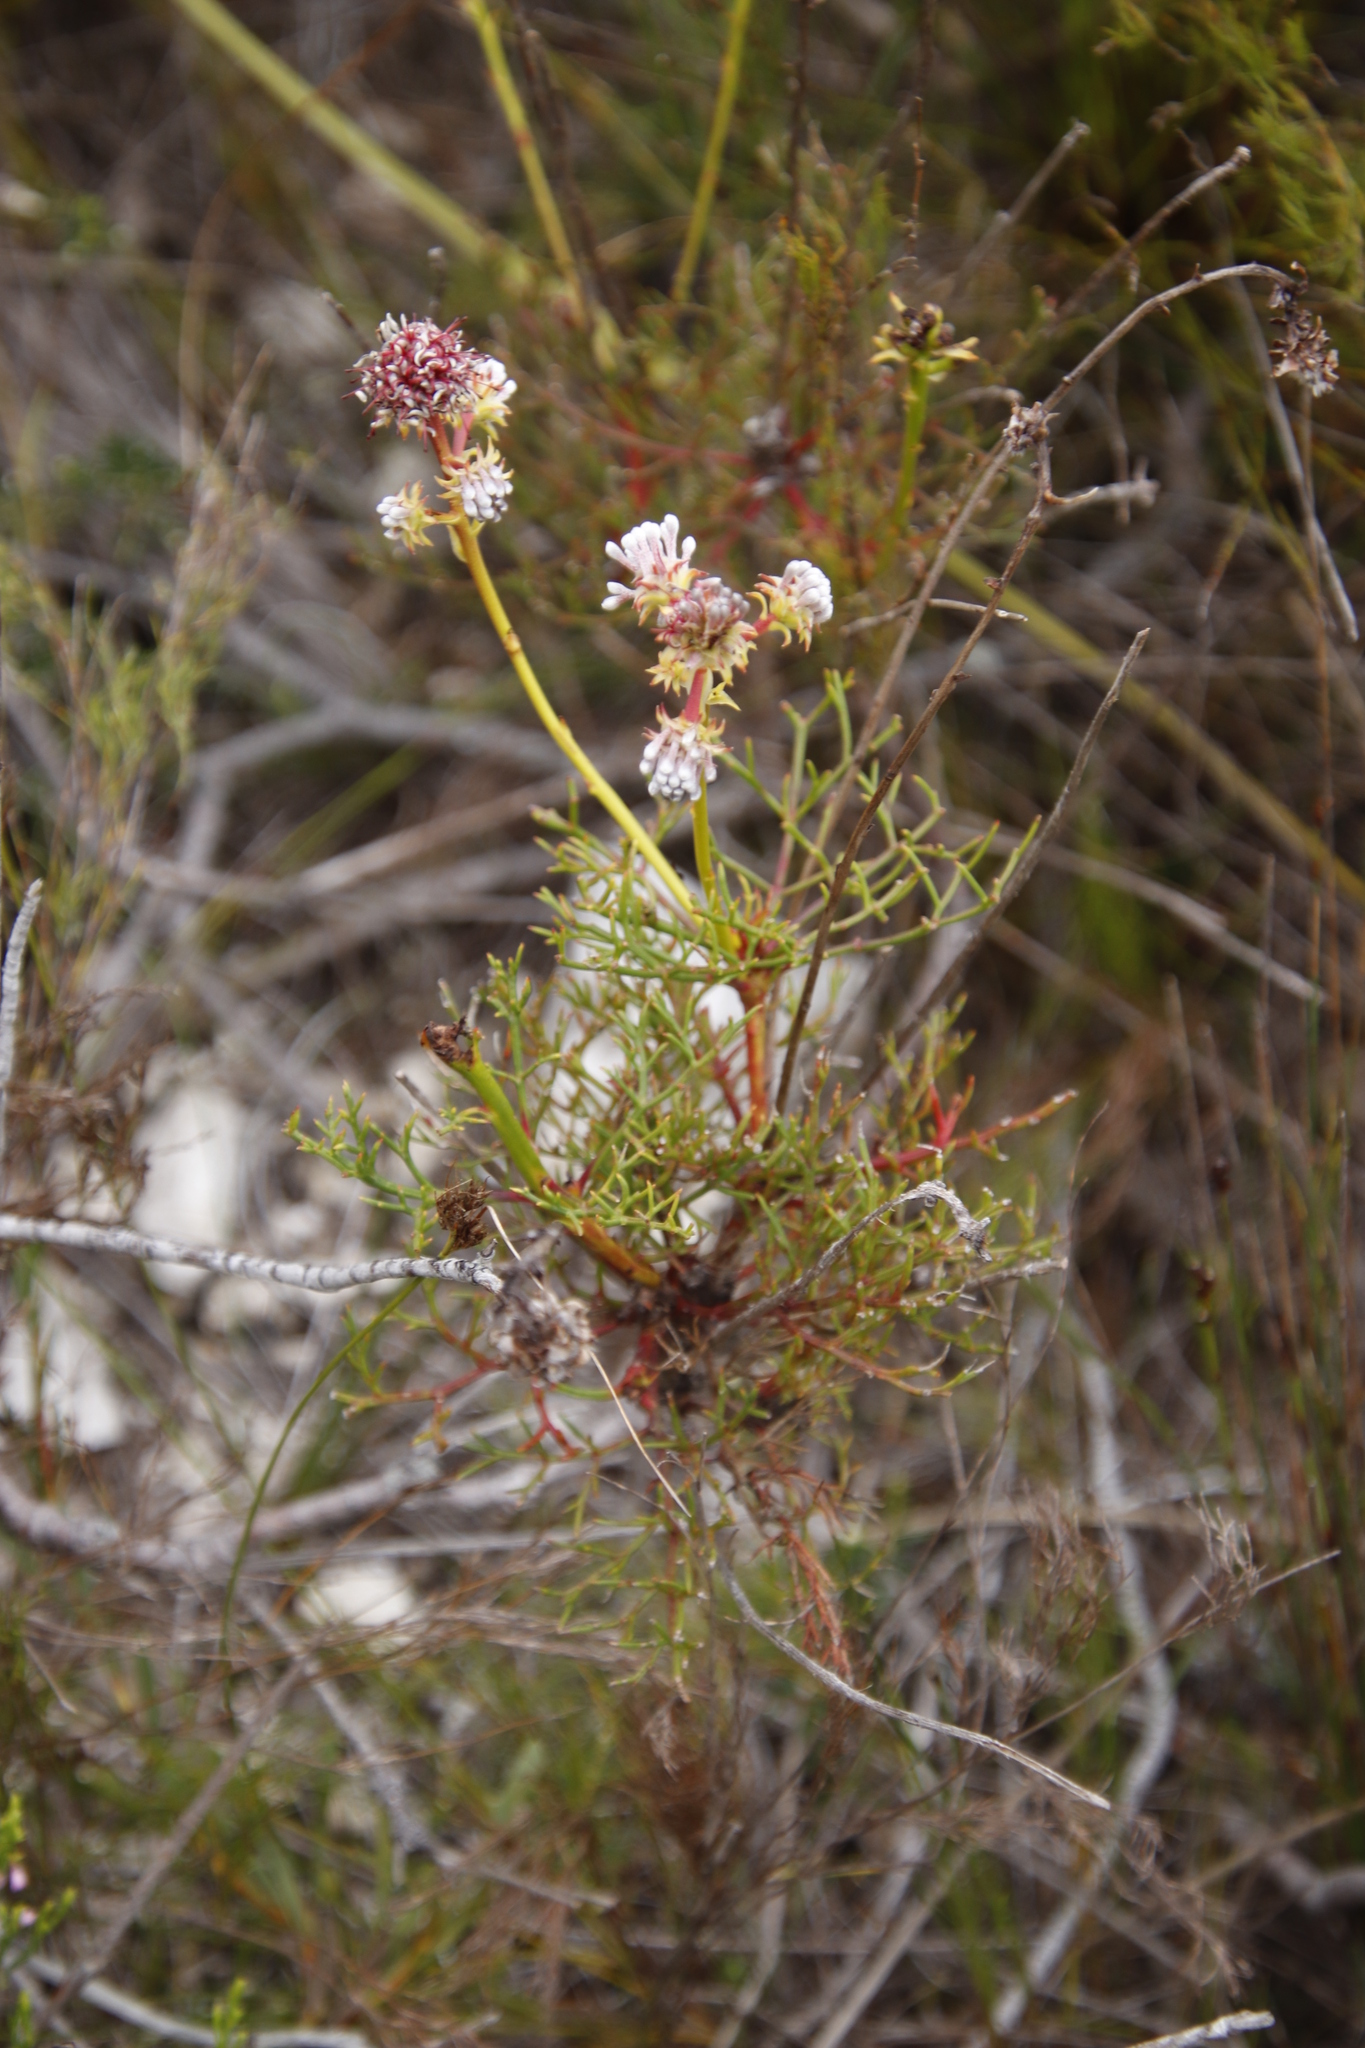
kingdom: Plantae
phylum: Tracheophyta
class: Magnoliopsida
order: Proteales
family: Proteaceae
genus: Serruria
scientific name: Serruria elongata
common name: Long-stalk spiderhead
